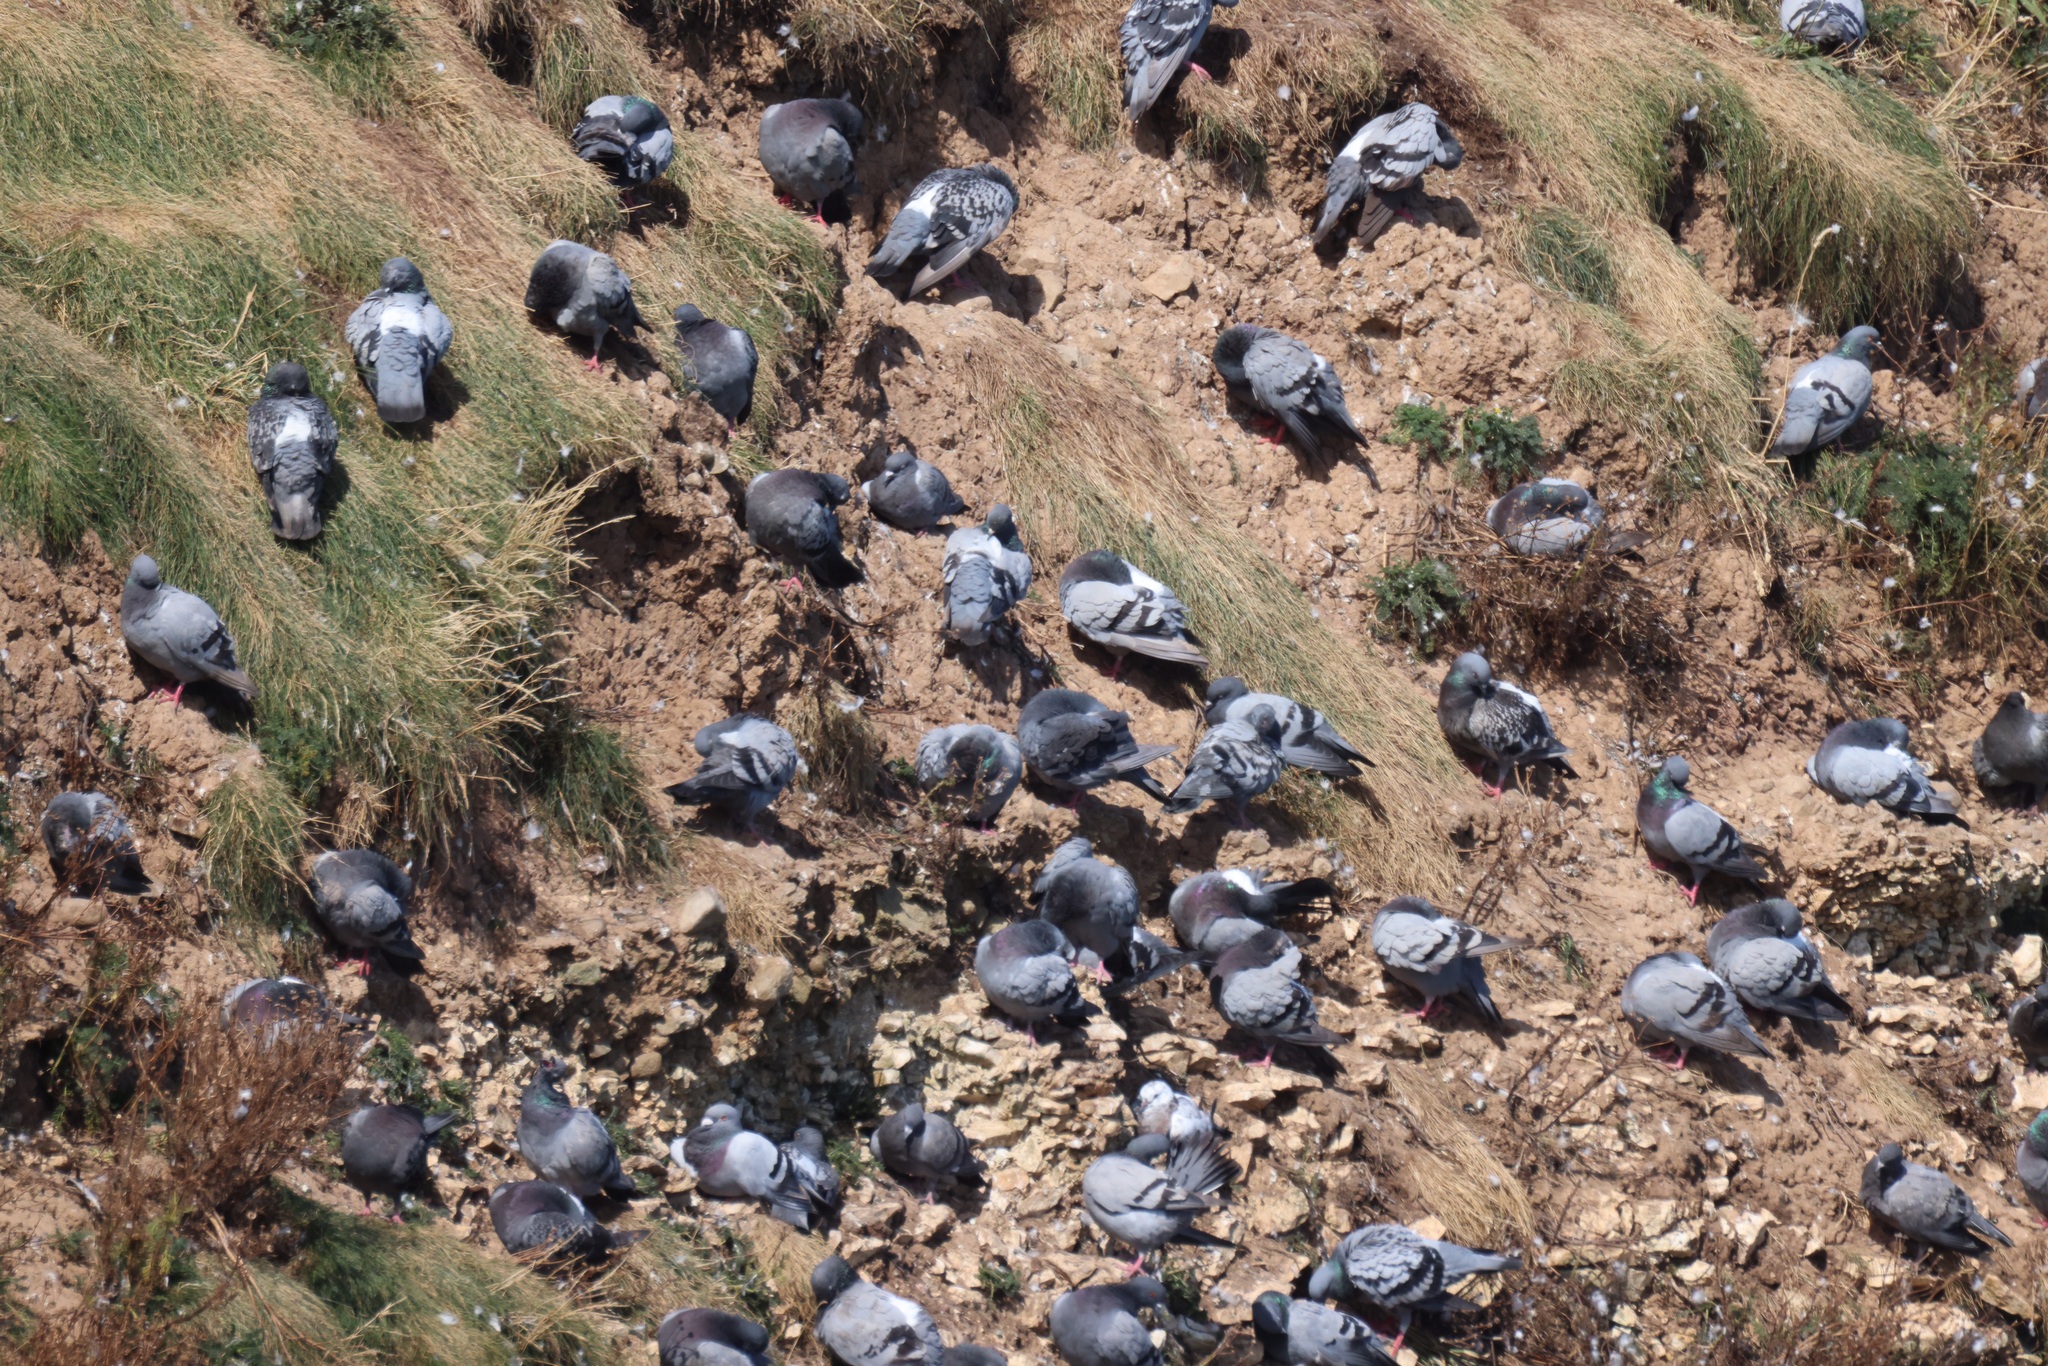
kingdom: Animalia
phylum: Chordata
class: Aves
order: Columbiformes
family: Columbidae
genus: Columba
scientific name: Columba livia
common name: Rock pigeon
